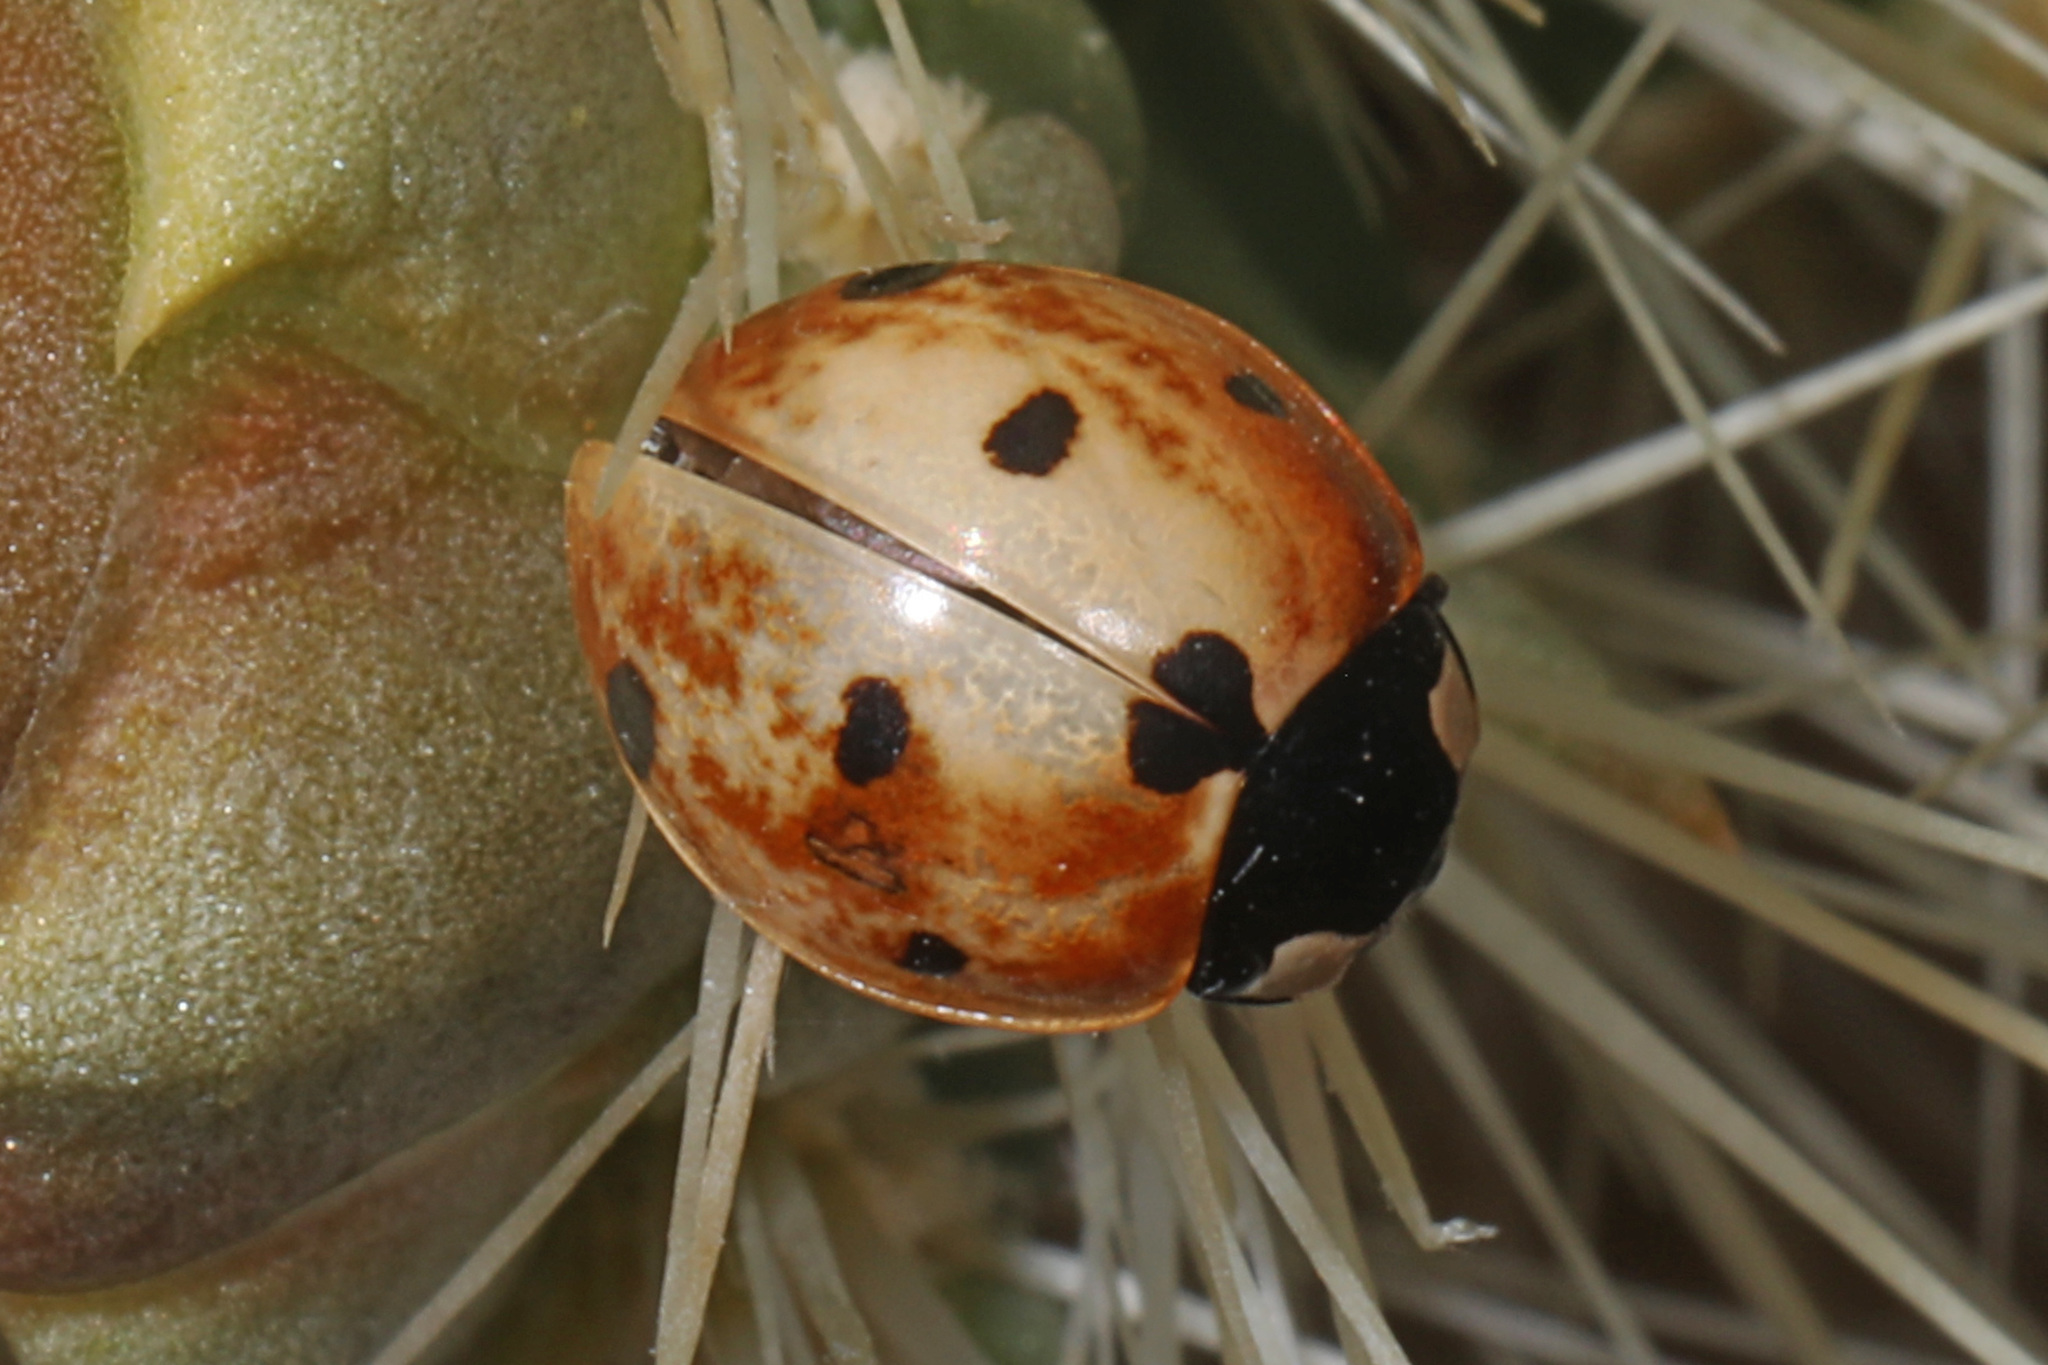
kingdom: Animalia
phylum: Arthropoda
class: Insecta
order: Coleoptera
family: Coccinellidae
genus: Coccinella
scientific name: Coccinella septempunctata
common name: Sevenspotted lady beetle
